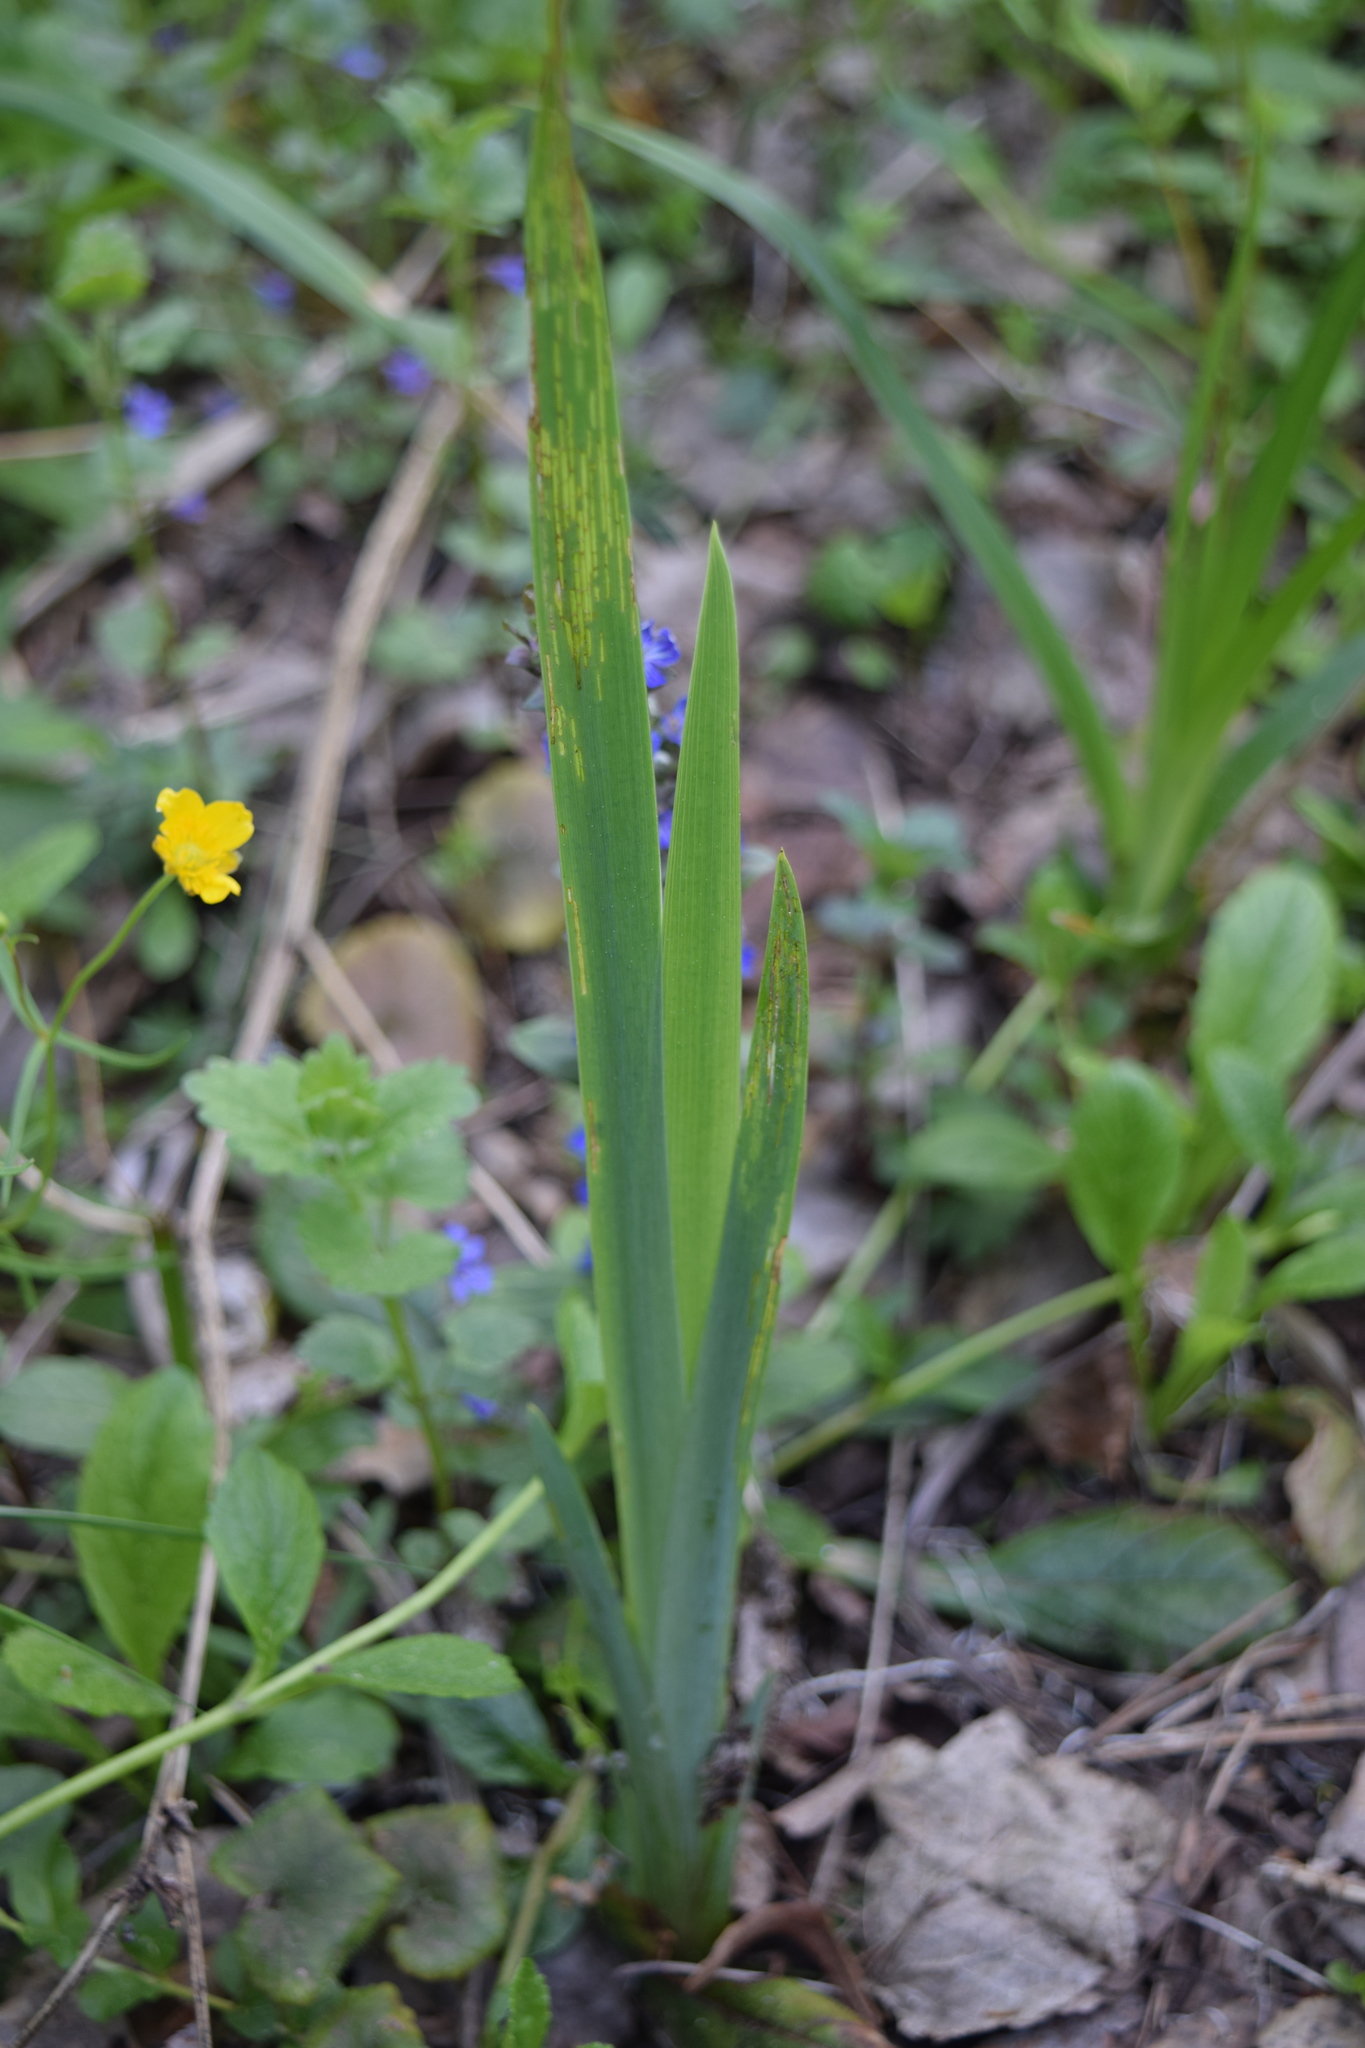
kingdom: Plantae
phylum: Tracheophyta
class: Liliopsida
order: Asparagales
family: Iridaceae
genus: Iris
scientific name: Iris pseudacorus
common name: Yellow flag
